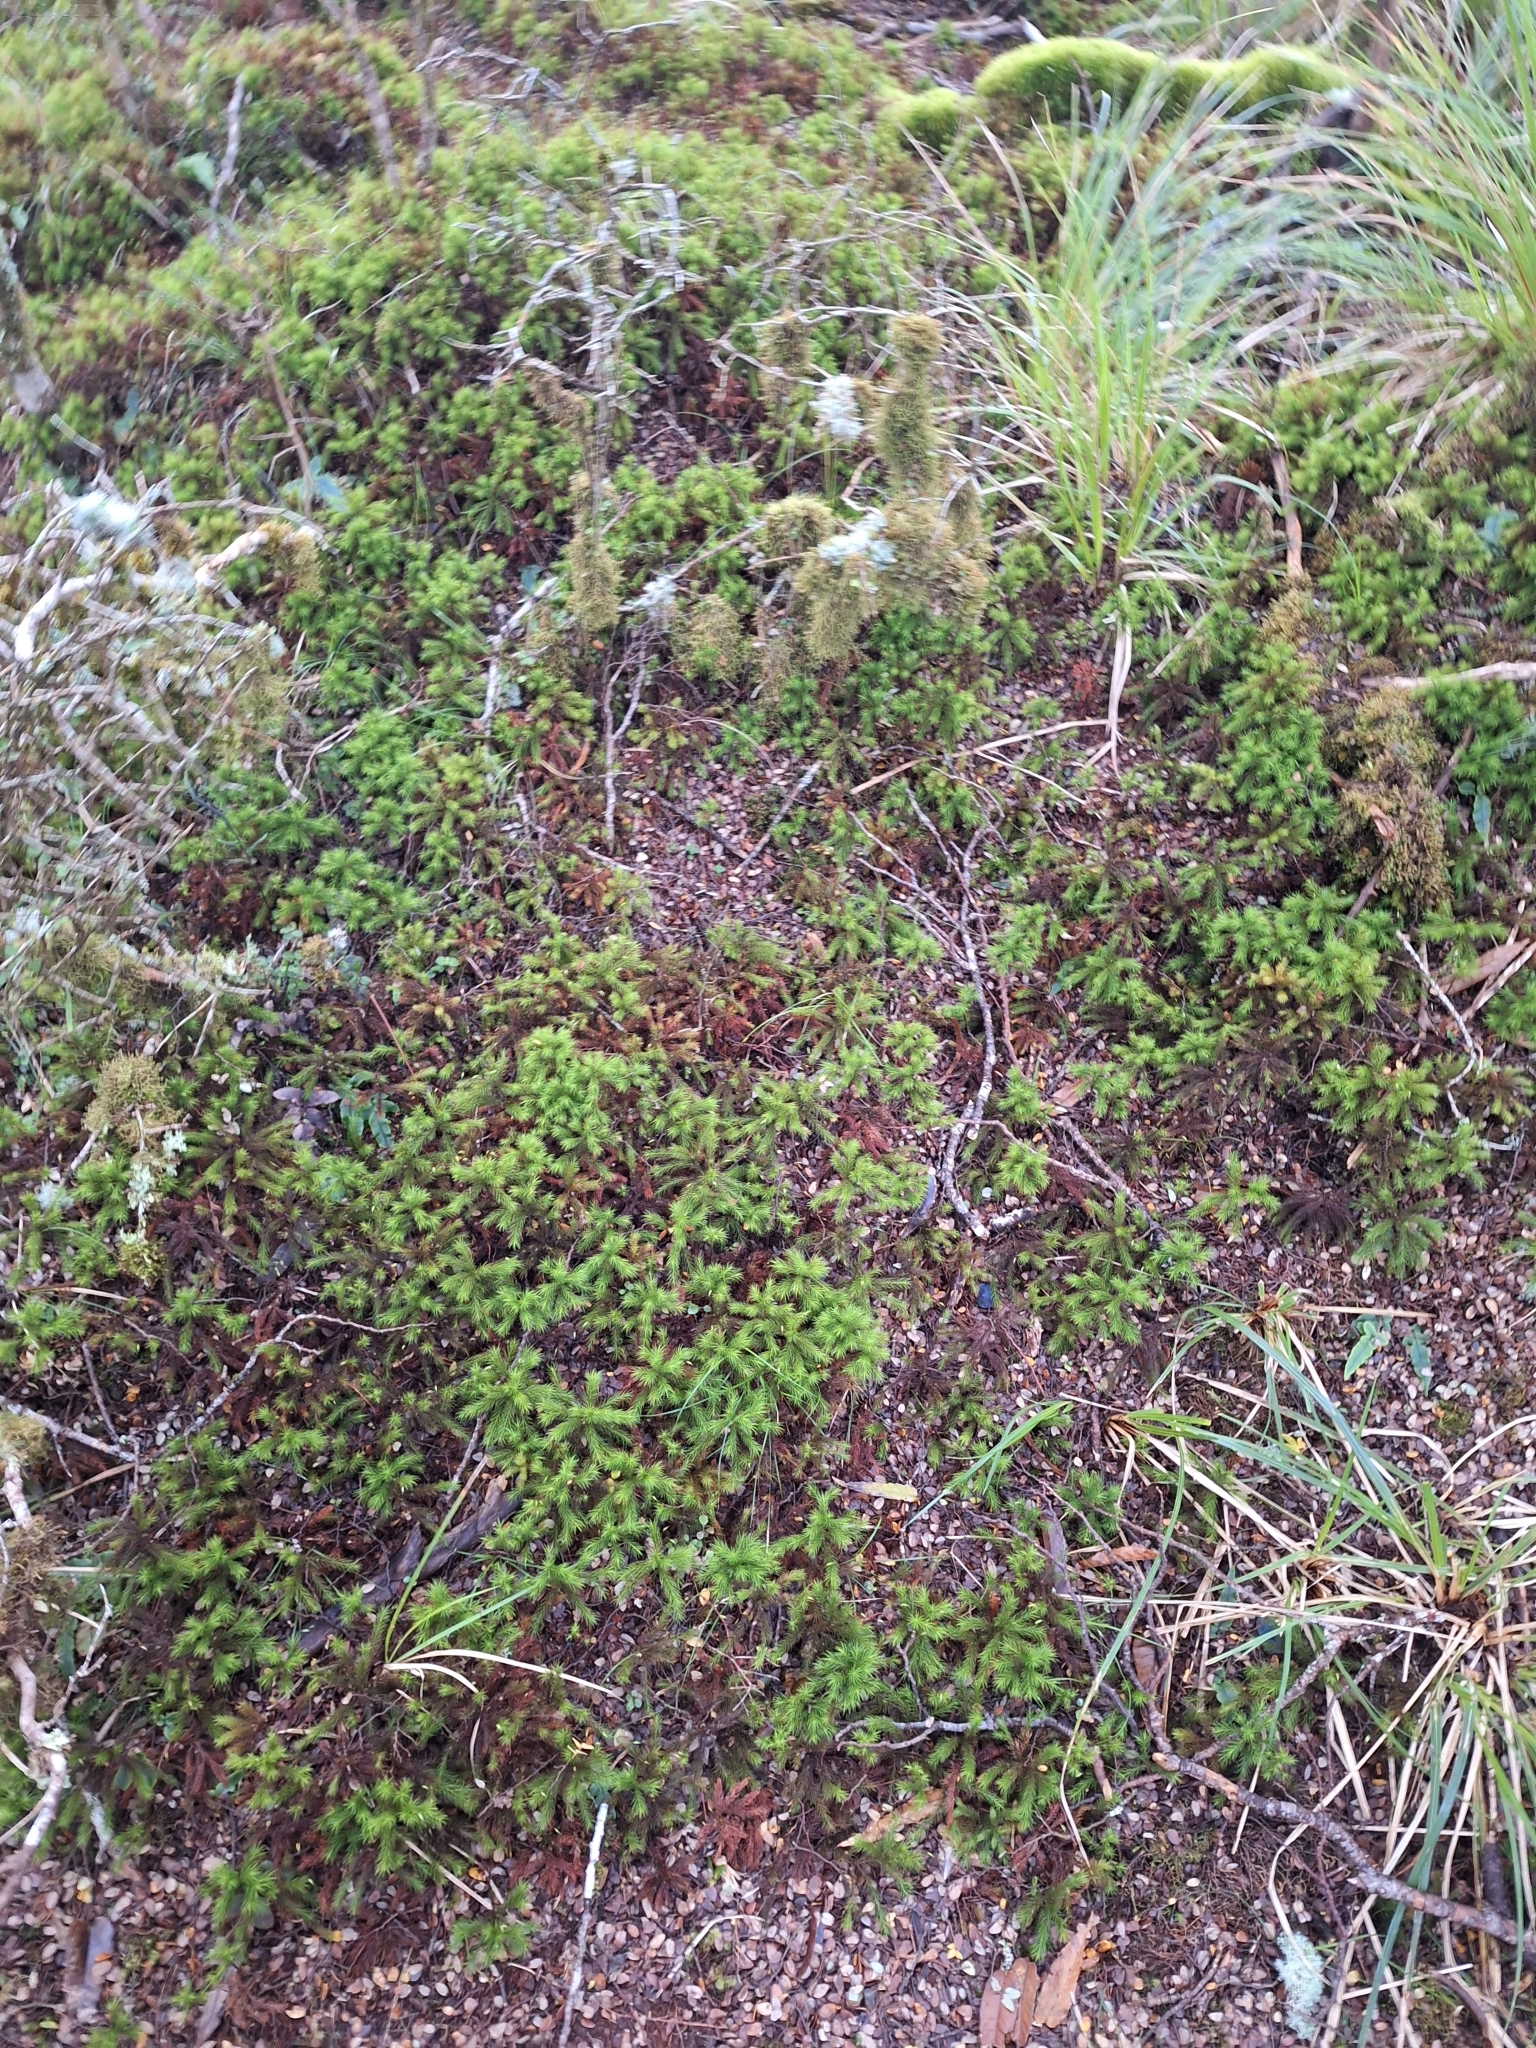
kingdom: Plantae
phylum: Bryophyta
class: Polytrichopsida
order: Polytrichales
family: Polytrichaceae
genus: Dendroligotrichum
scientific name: Dendroligotrichum tongariroense
